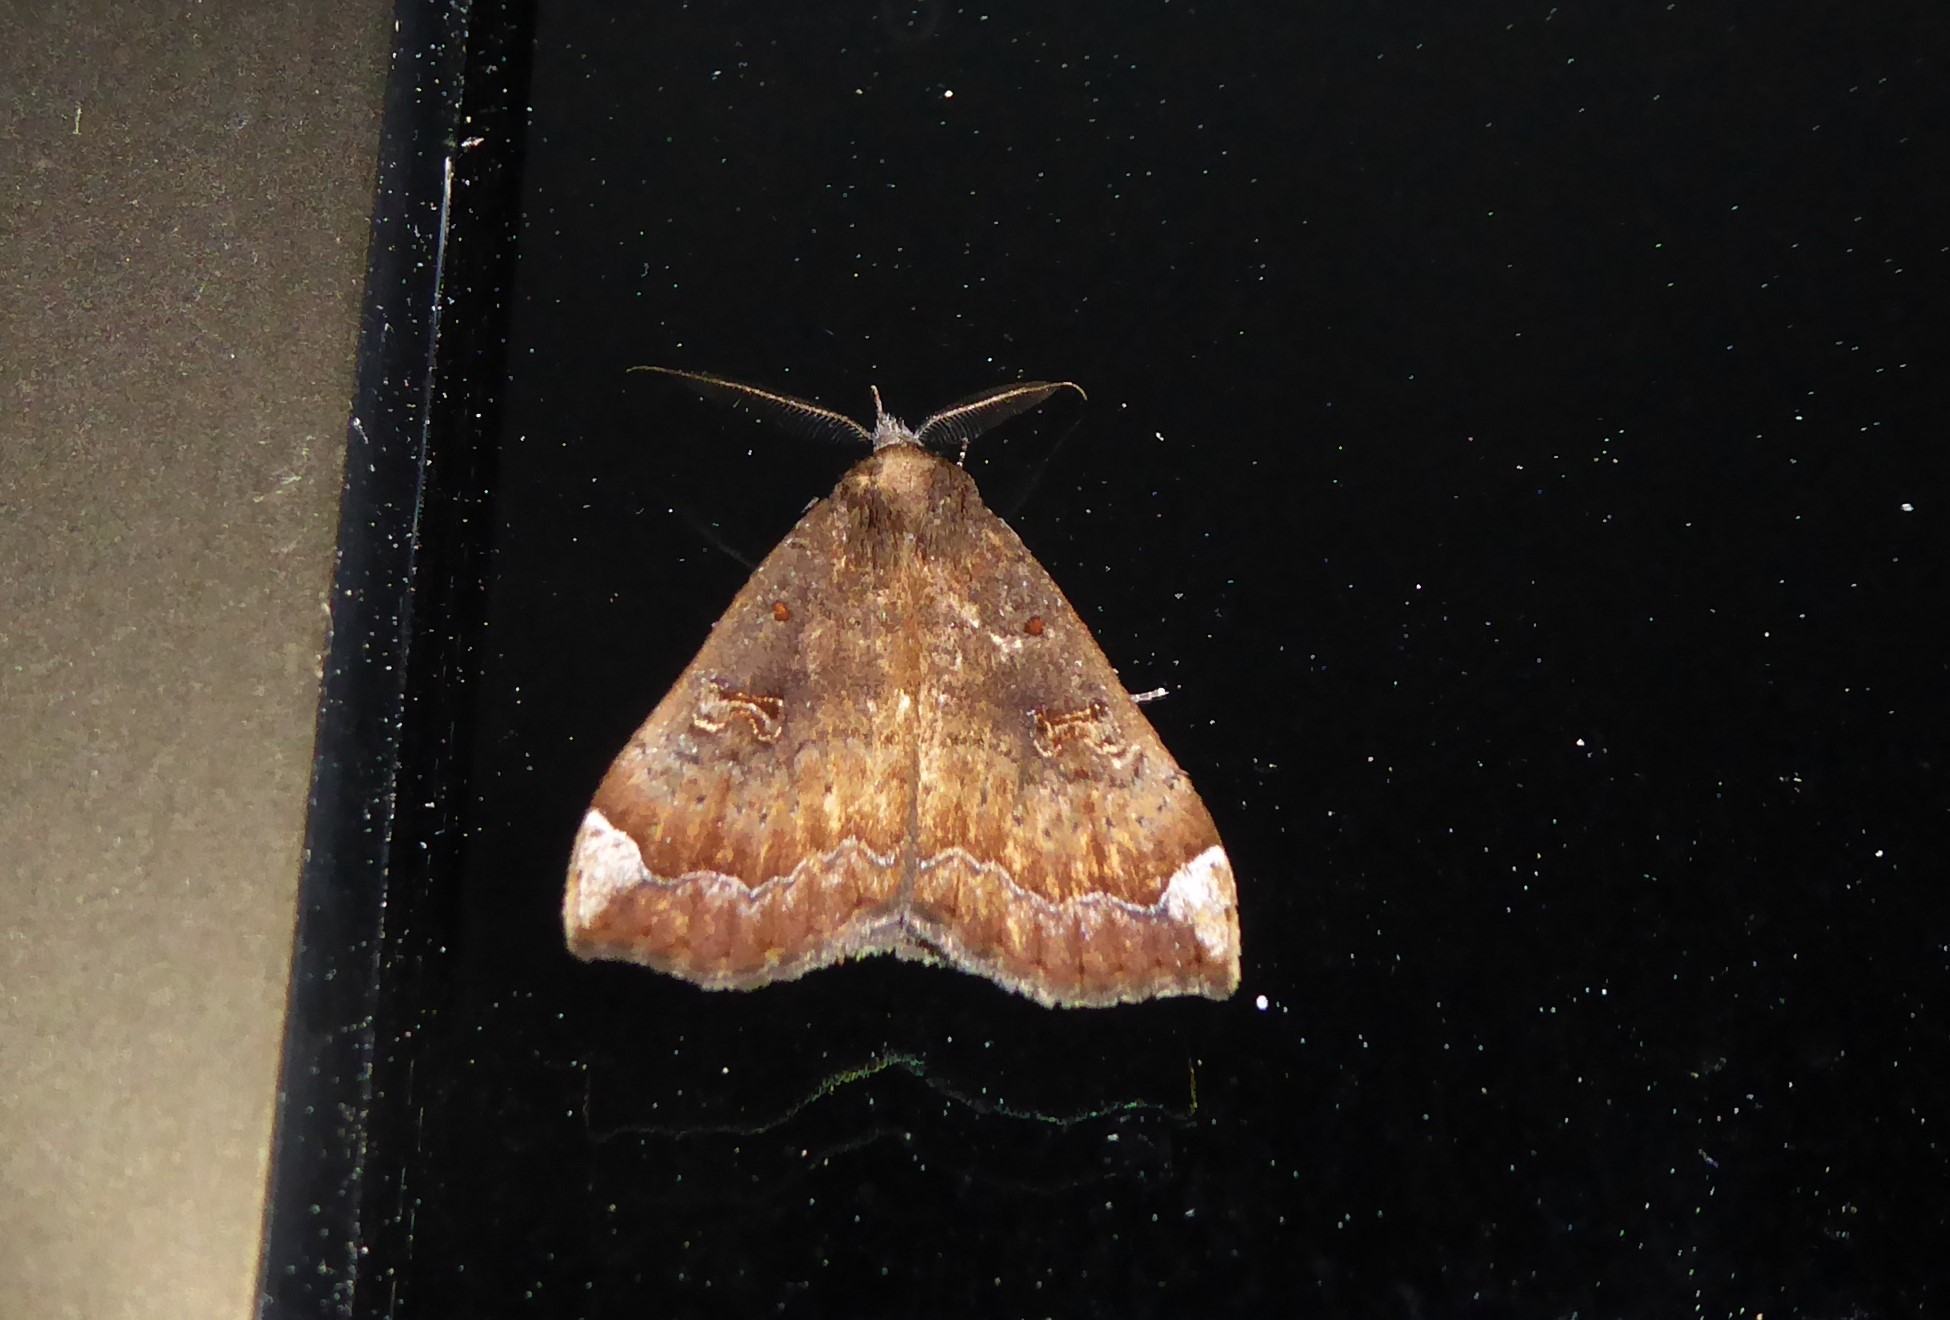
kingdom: Animalia
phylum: Arthropoda
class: Insecta
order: Lepidoptera
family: Erebidae
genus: Rhapsa
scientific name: Rhapsa scotosialis
